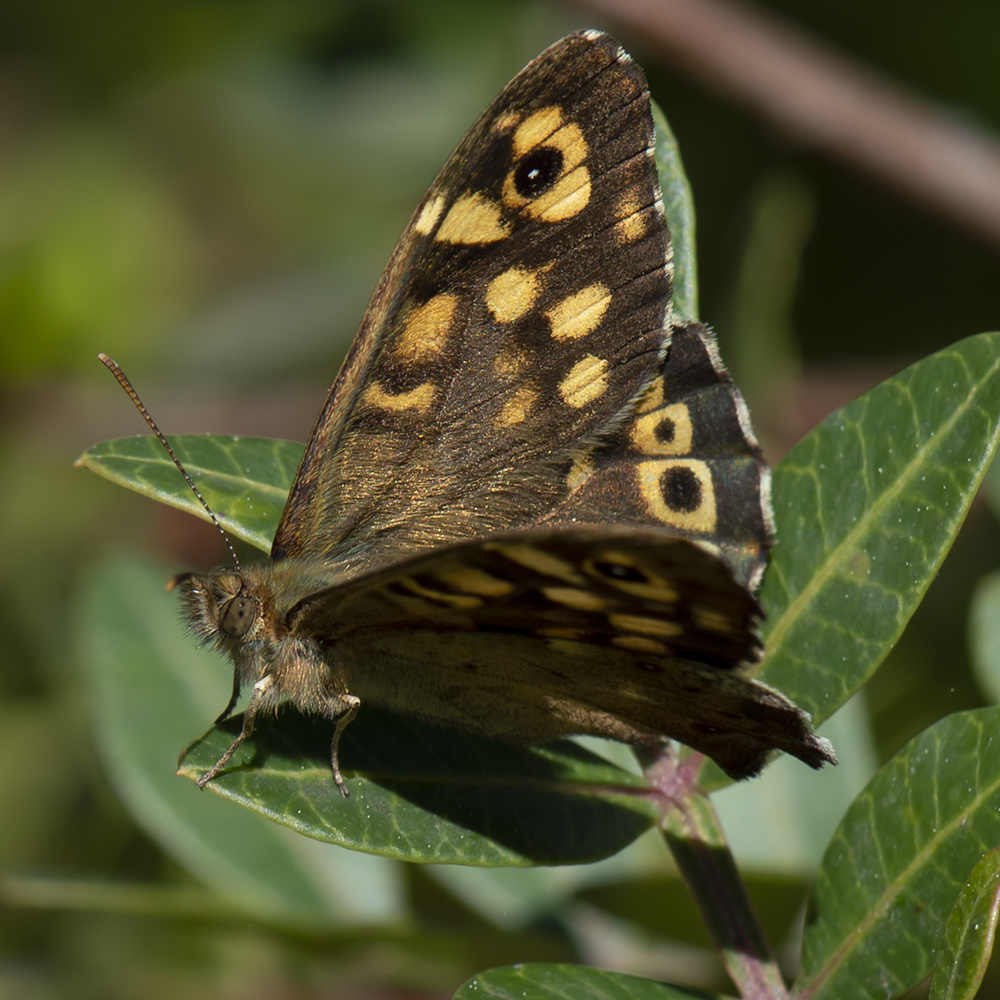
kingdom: Animalia
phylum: Arthropoda
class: Insecta
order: Lepidoptera
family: Nymphalidae
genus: Pararge
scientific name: Pararge aegeria
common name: Speckled wood
